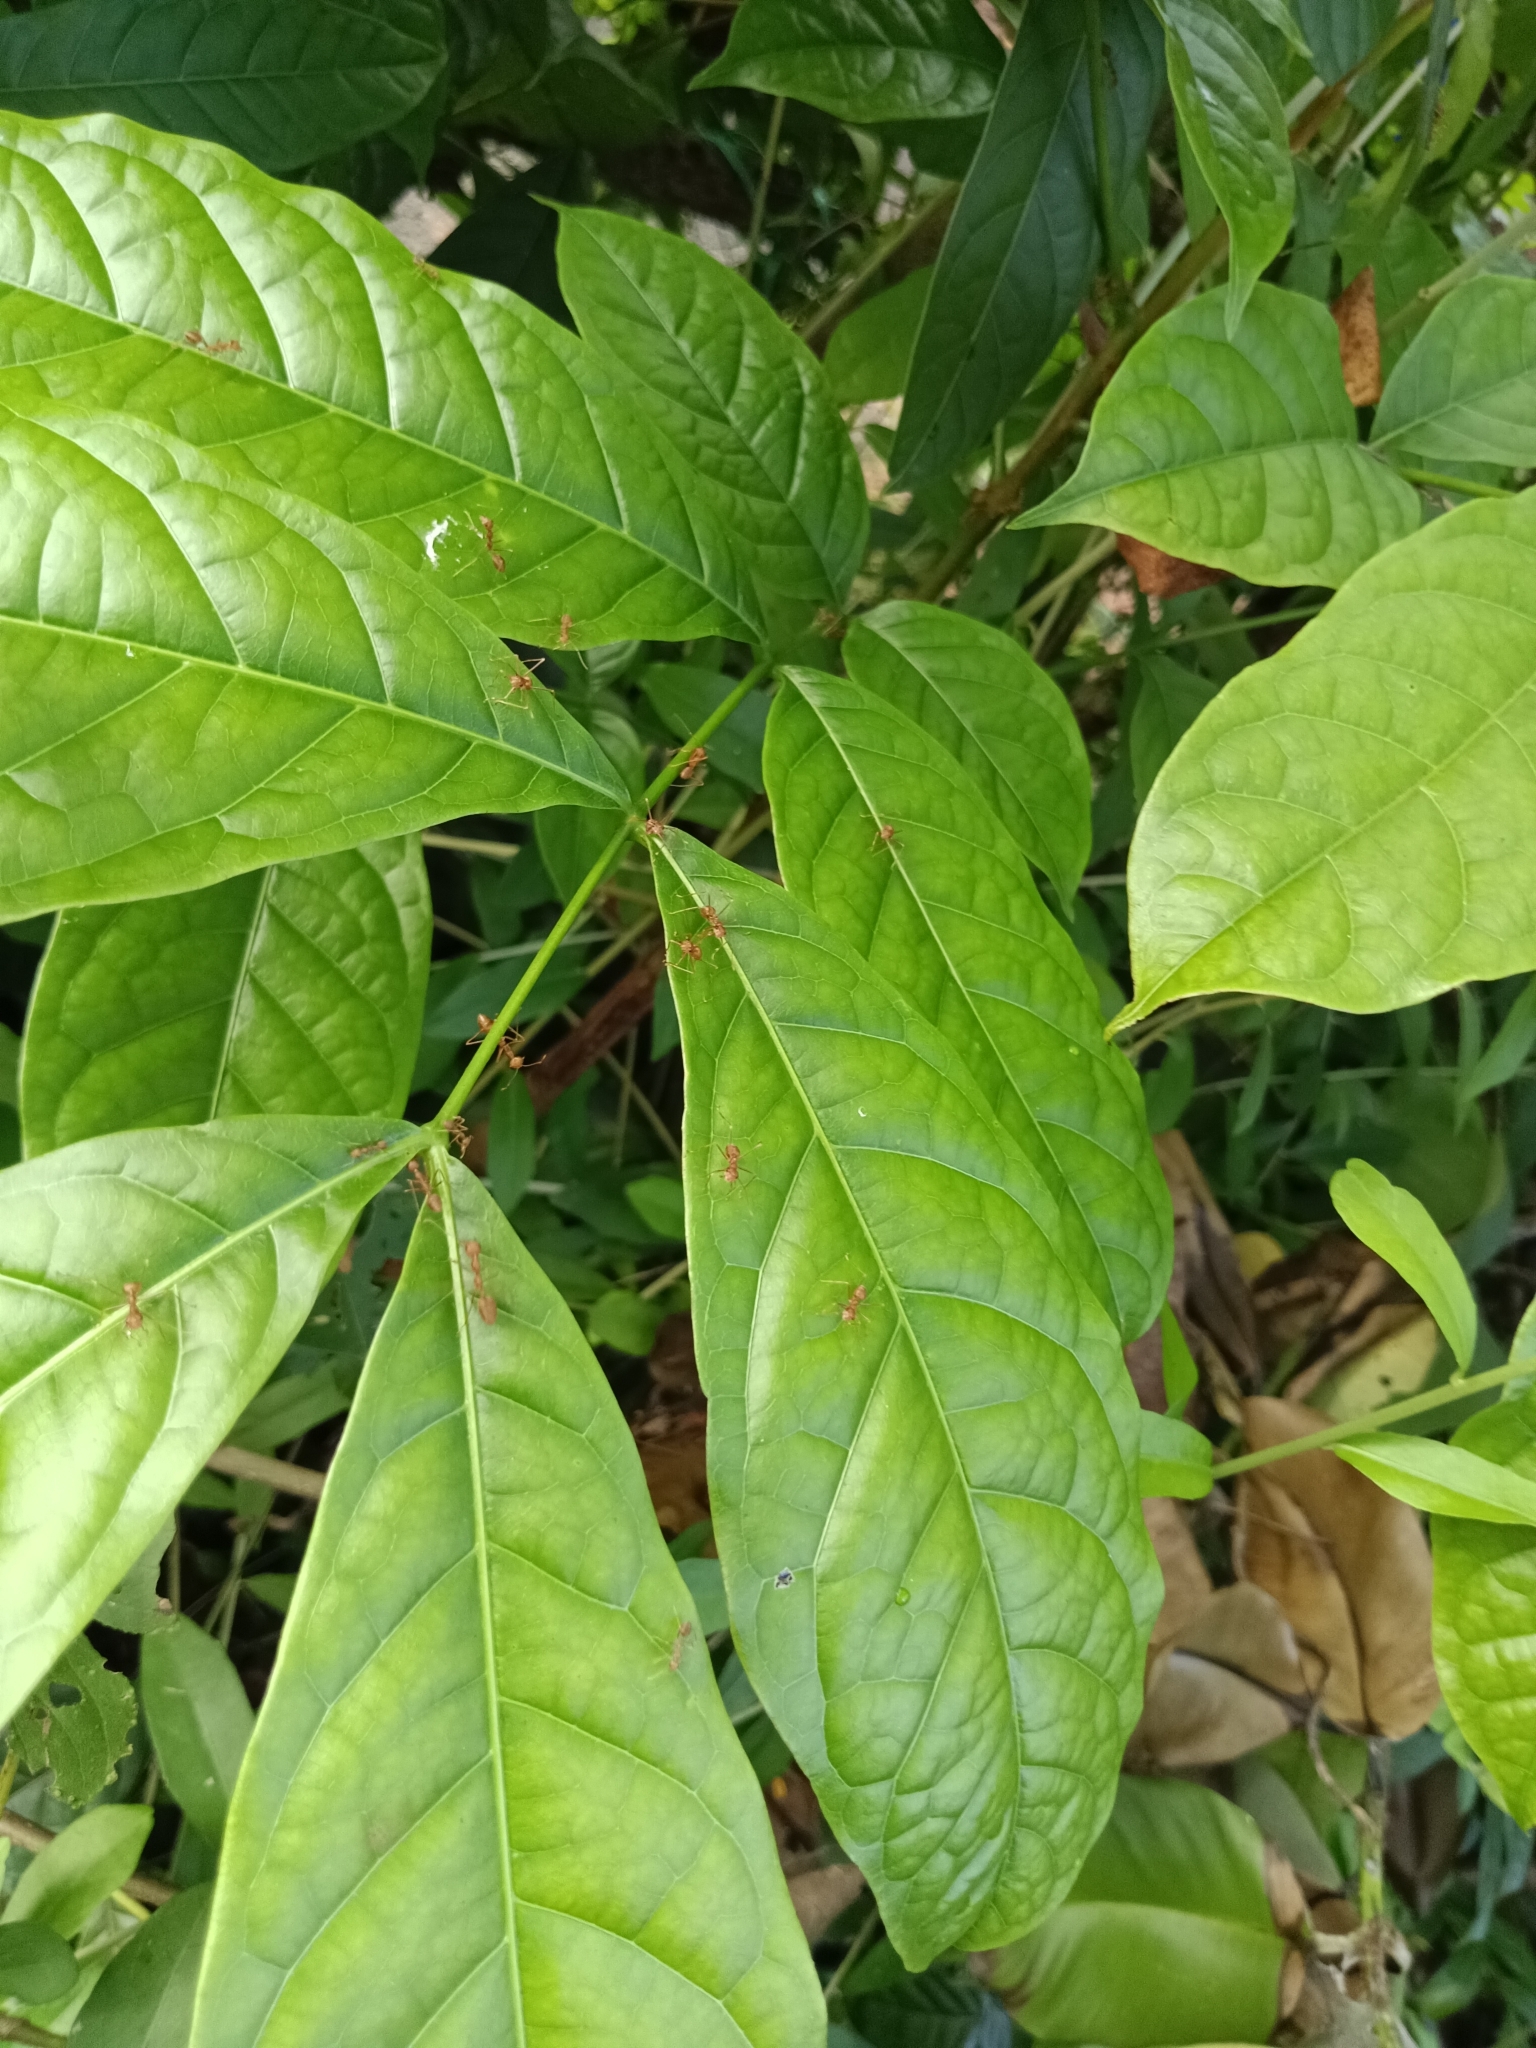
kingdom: Animalia
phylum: Arthropoda
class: Insecta
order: Hymenoptera
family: Formicidae
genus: Oecophylla
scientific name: Oecophylla smaragdina
